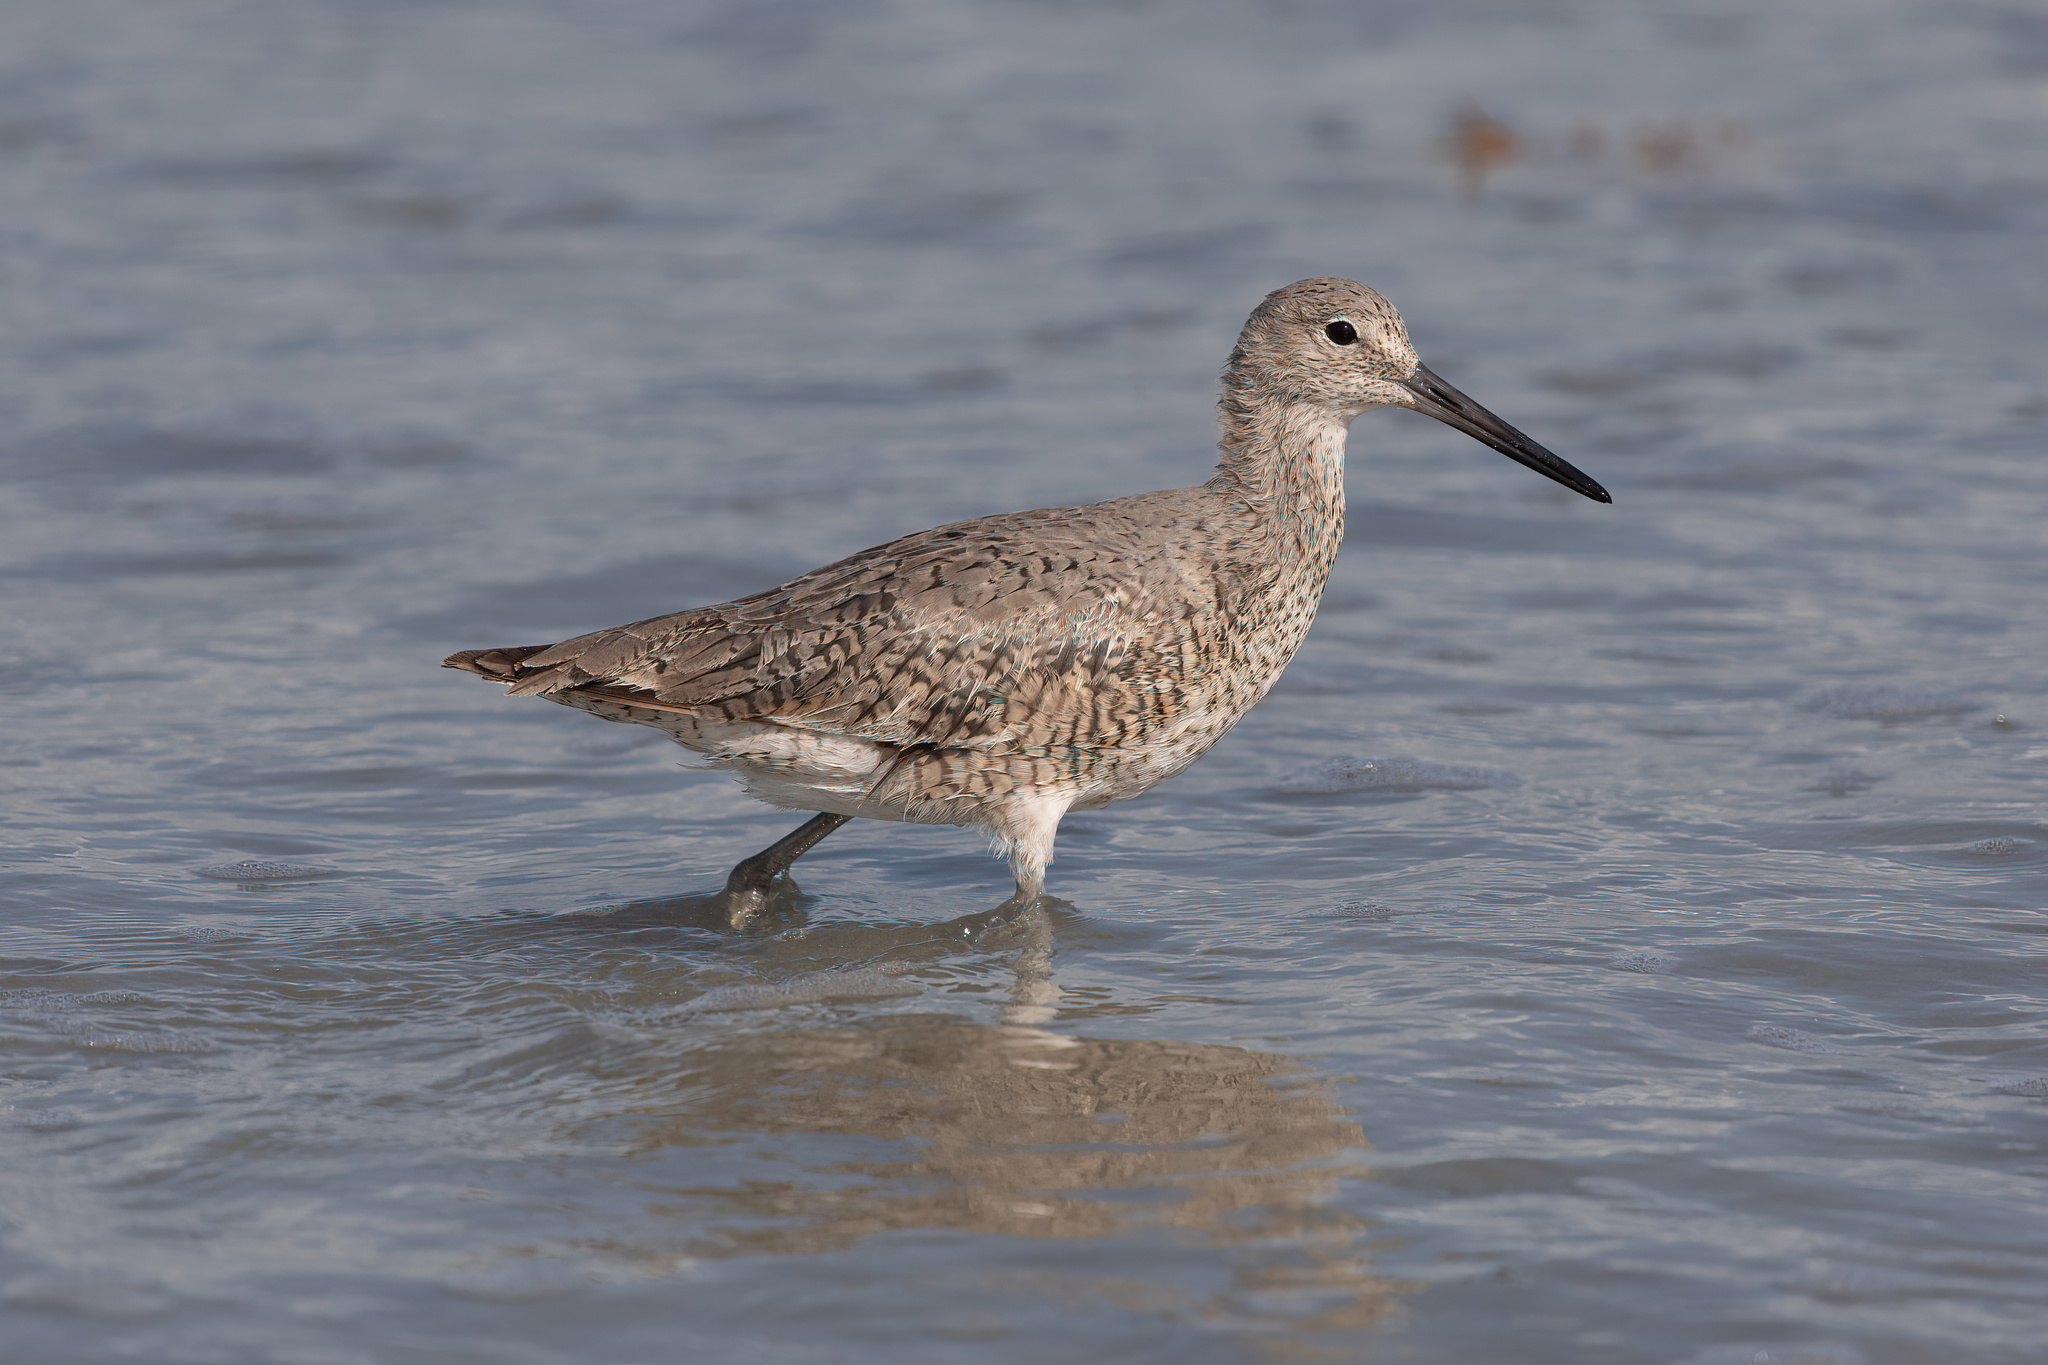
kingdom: Animalia
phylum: Chordata
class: Aves
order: Charadriiformes
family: Scolopacidae
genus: Tringa
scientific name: Tringa semipalmata
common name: Willet
